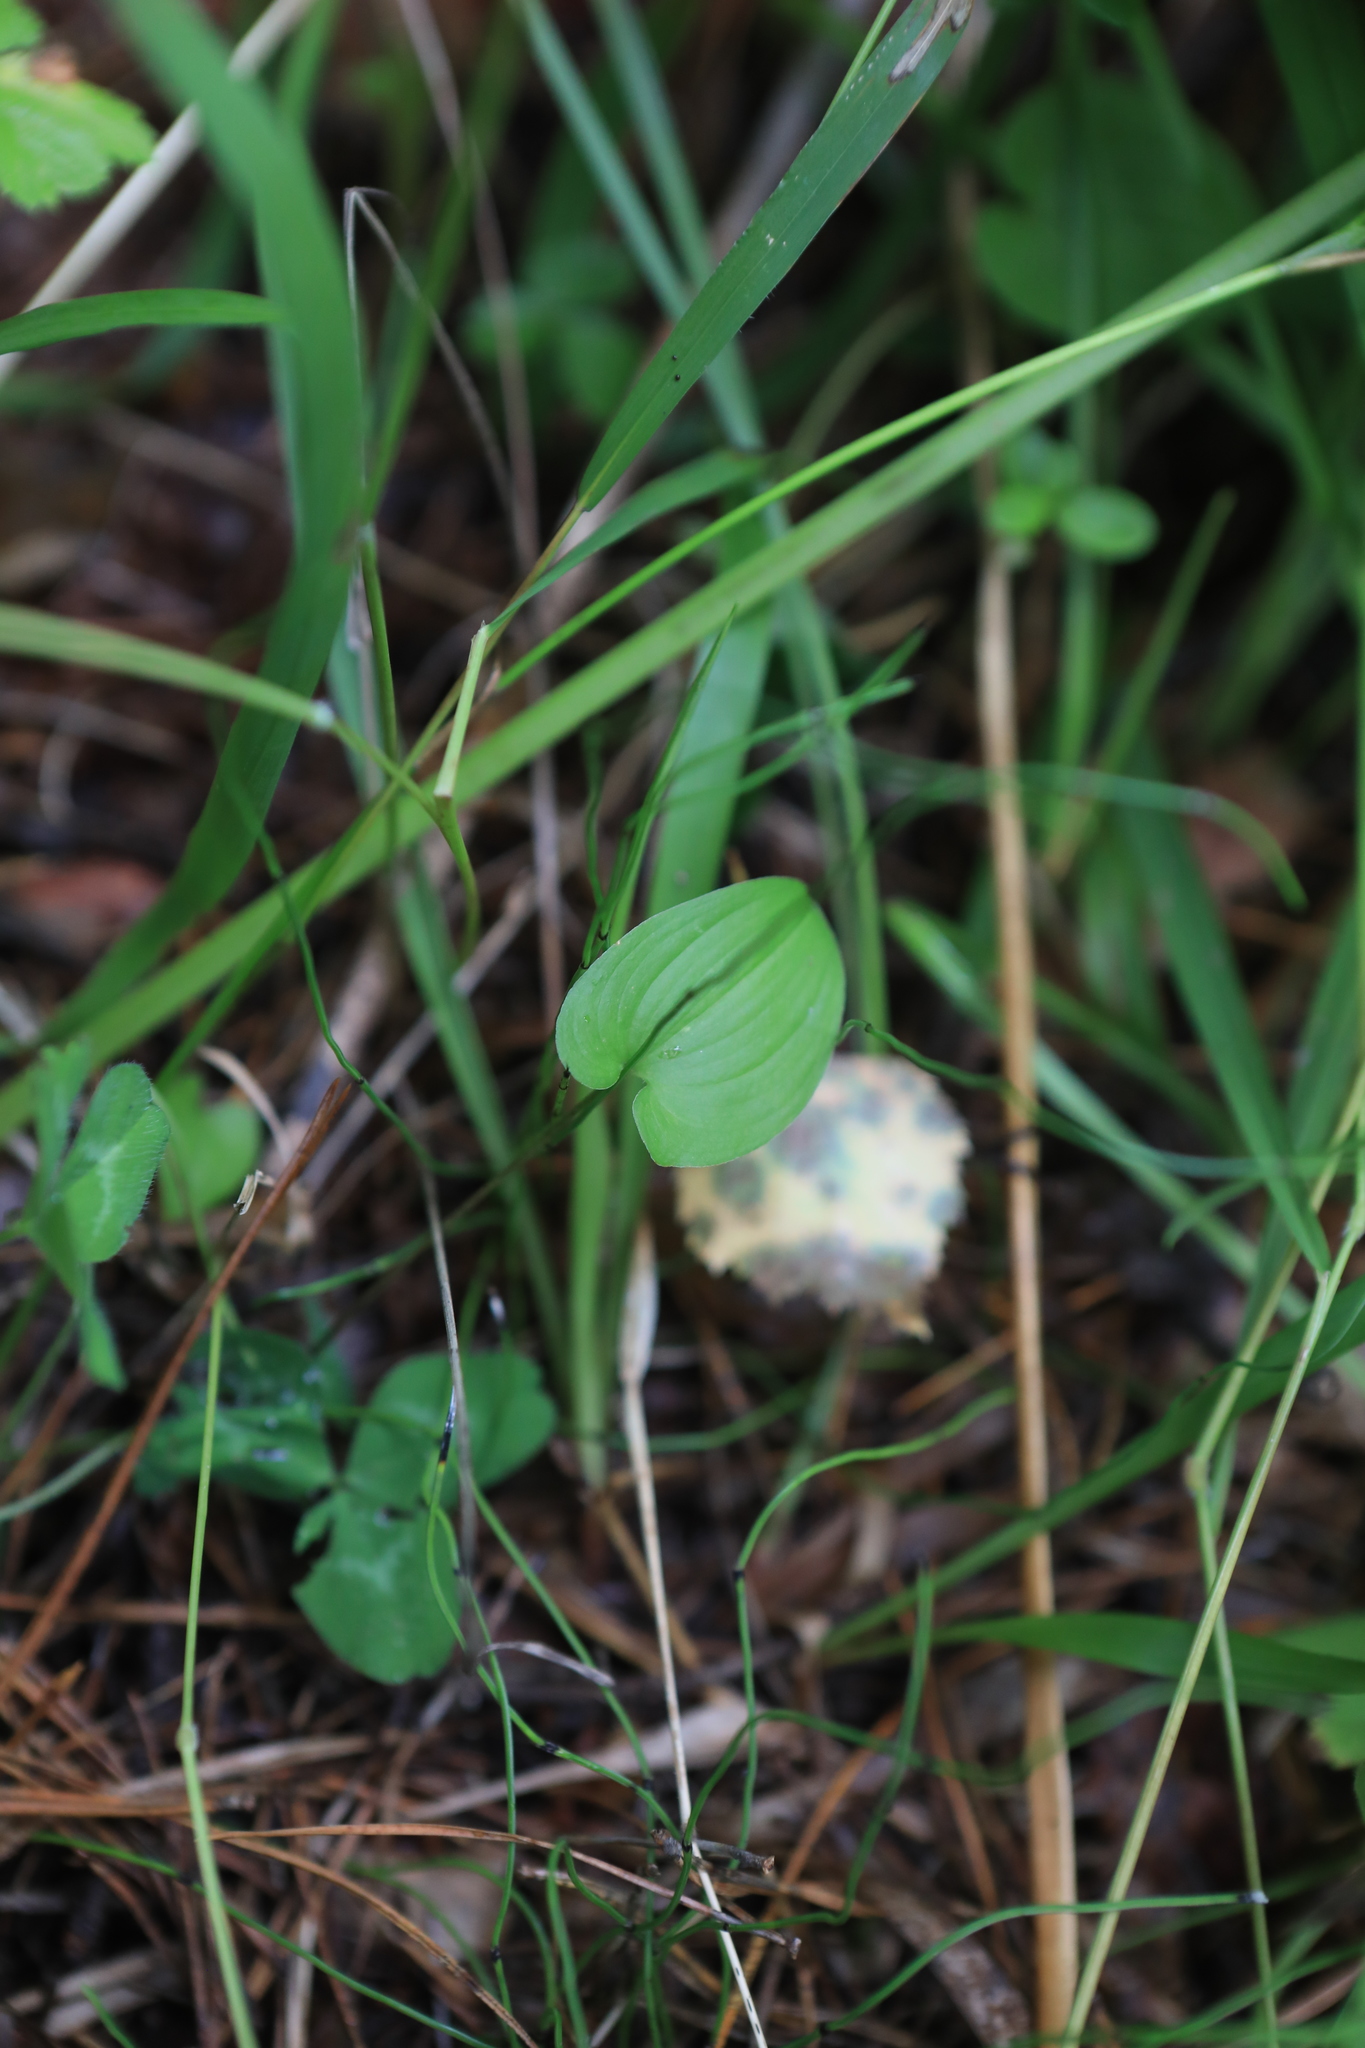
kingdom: Plantae
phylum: Tracheophyta
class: Liliopsida
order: Asparagales
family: Asparagaceae
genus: Maianthemum
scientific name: Maianthemum bifolium
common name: May lily
